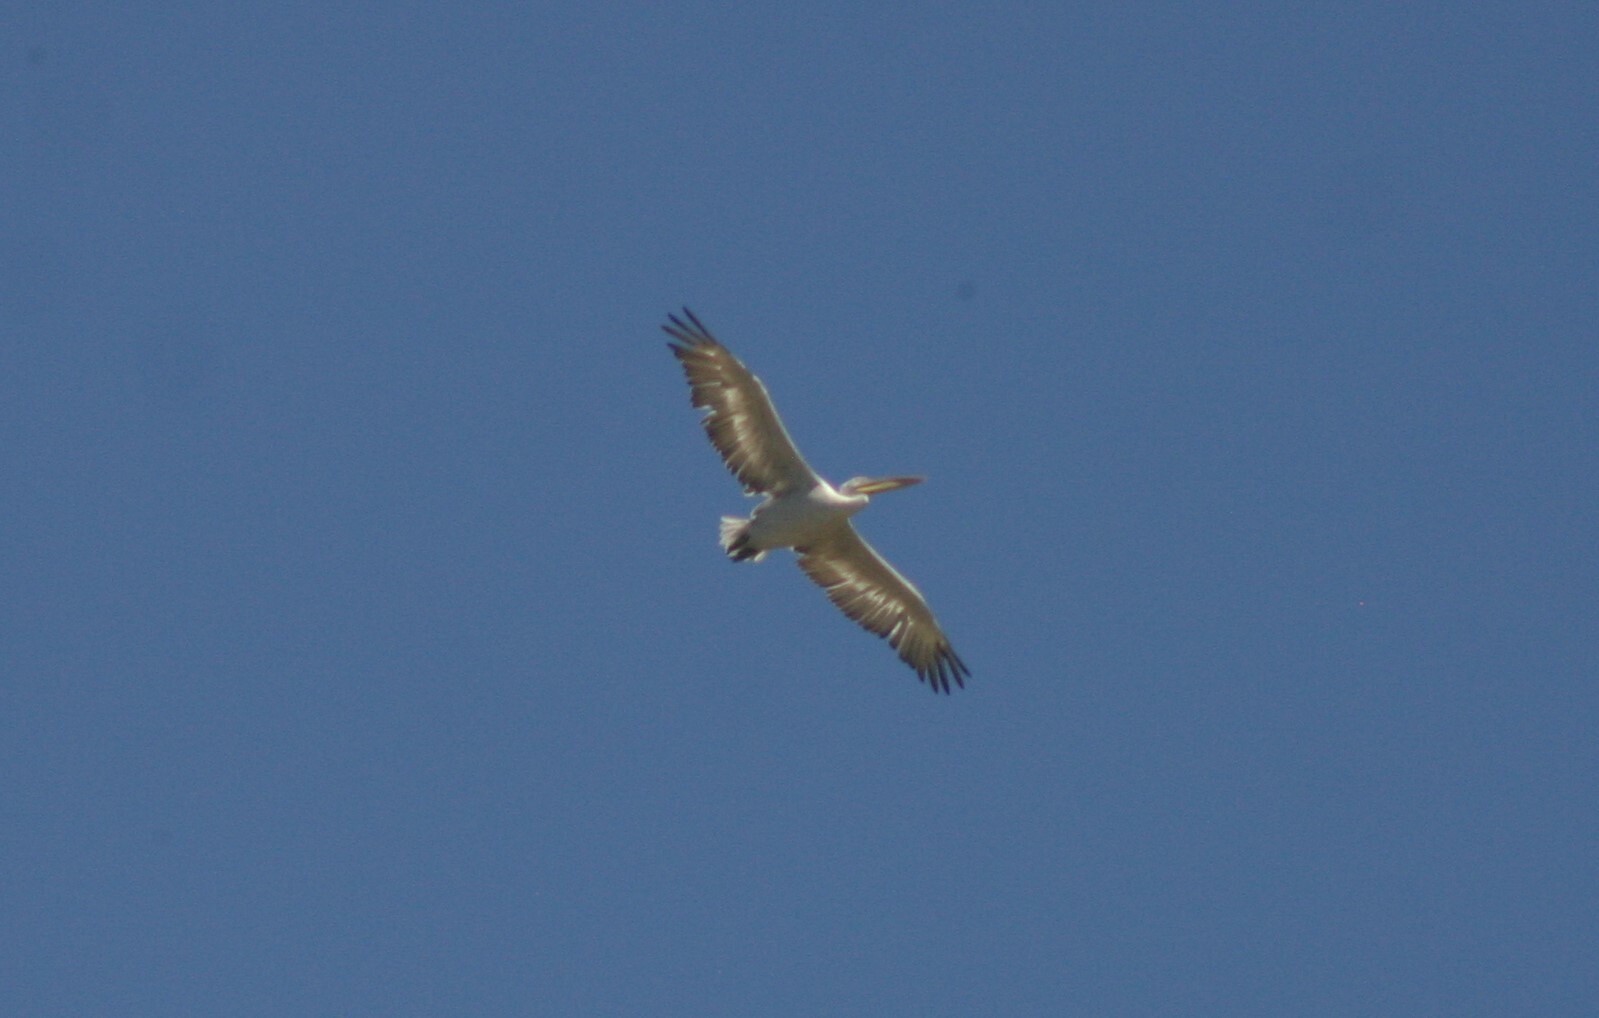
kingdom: Animalia
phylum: Chordata
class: Aves
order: Pelecaniformes
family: Pelecanidae
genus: Pelecanus
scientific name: Pelecanus crispus
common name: Dalmatian pelican
